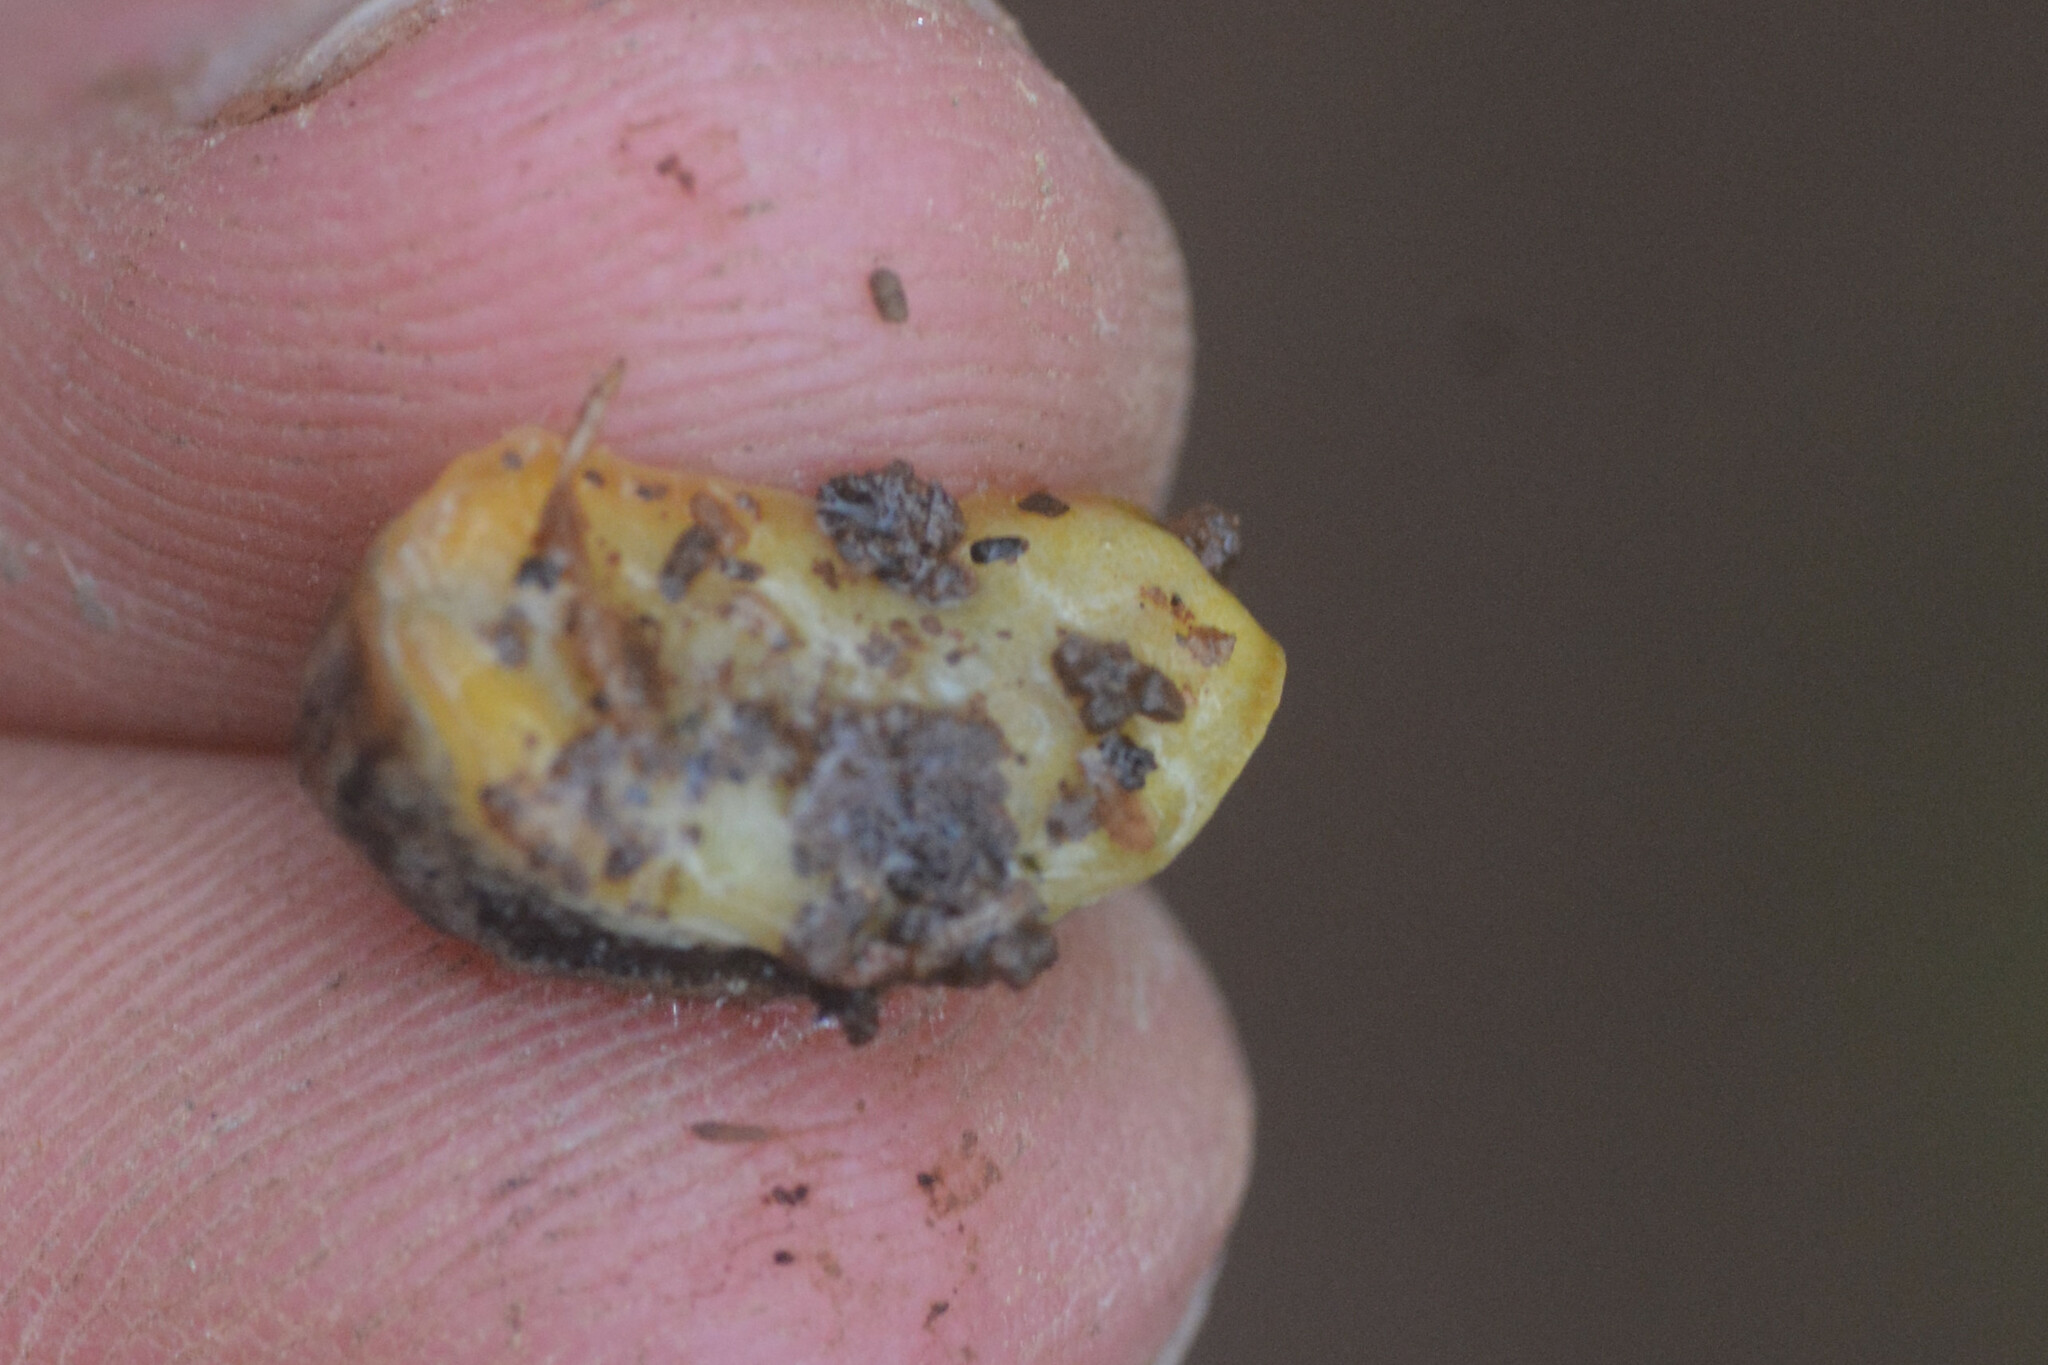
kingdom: Animalia
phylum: Mollusca
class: Gastropoda
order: Stylommatophora
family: Arionidae
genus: Arion
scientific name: Arion owenii
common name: Warty arion
